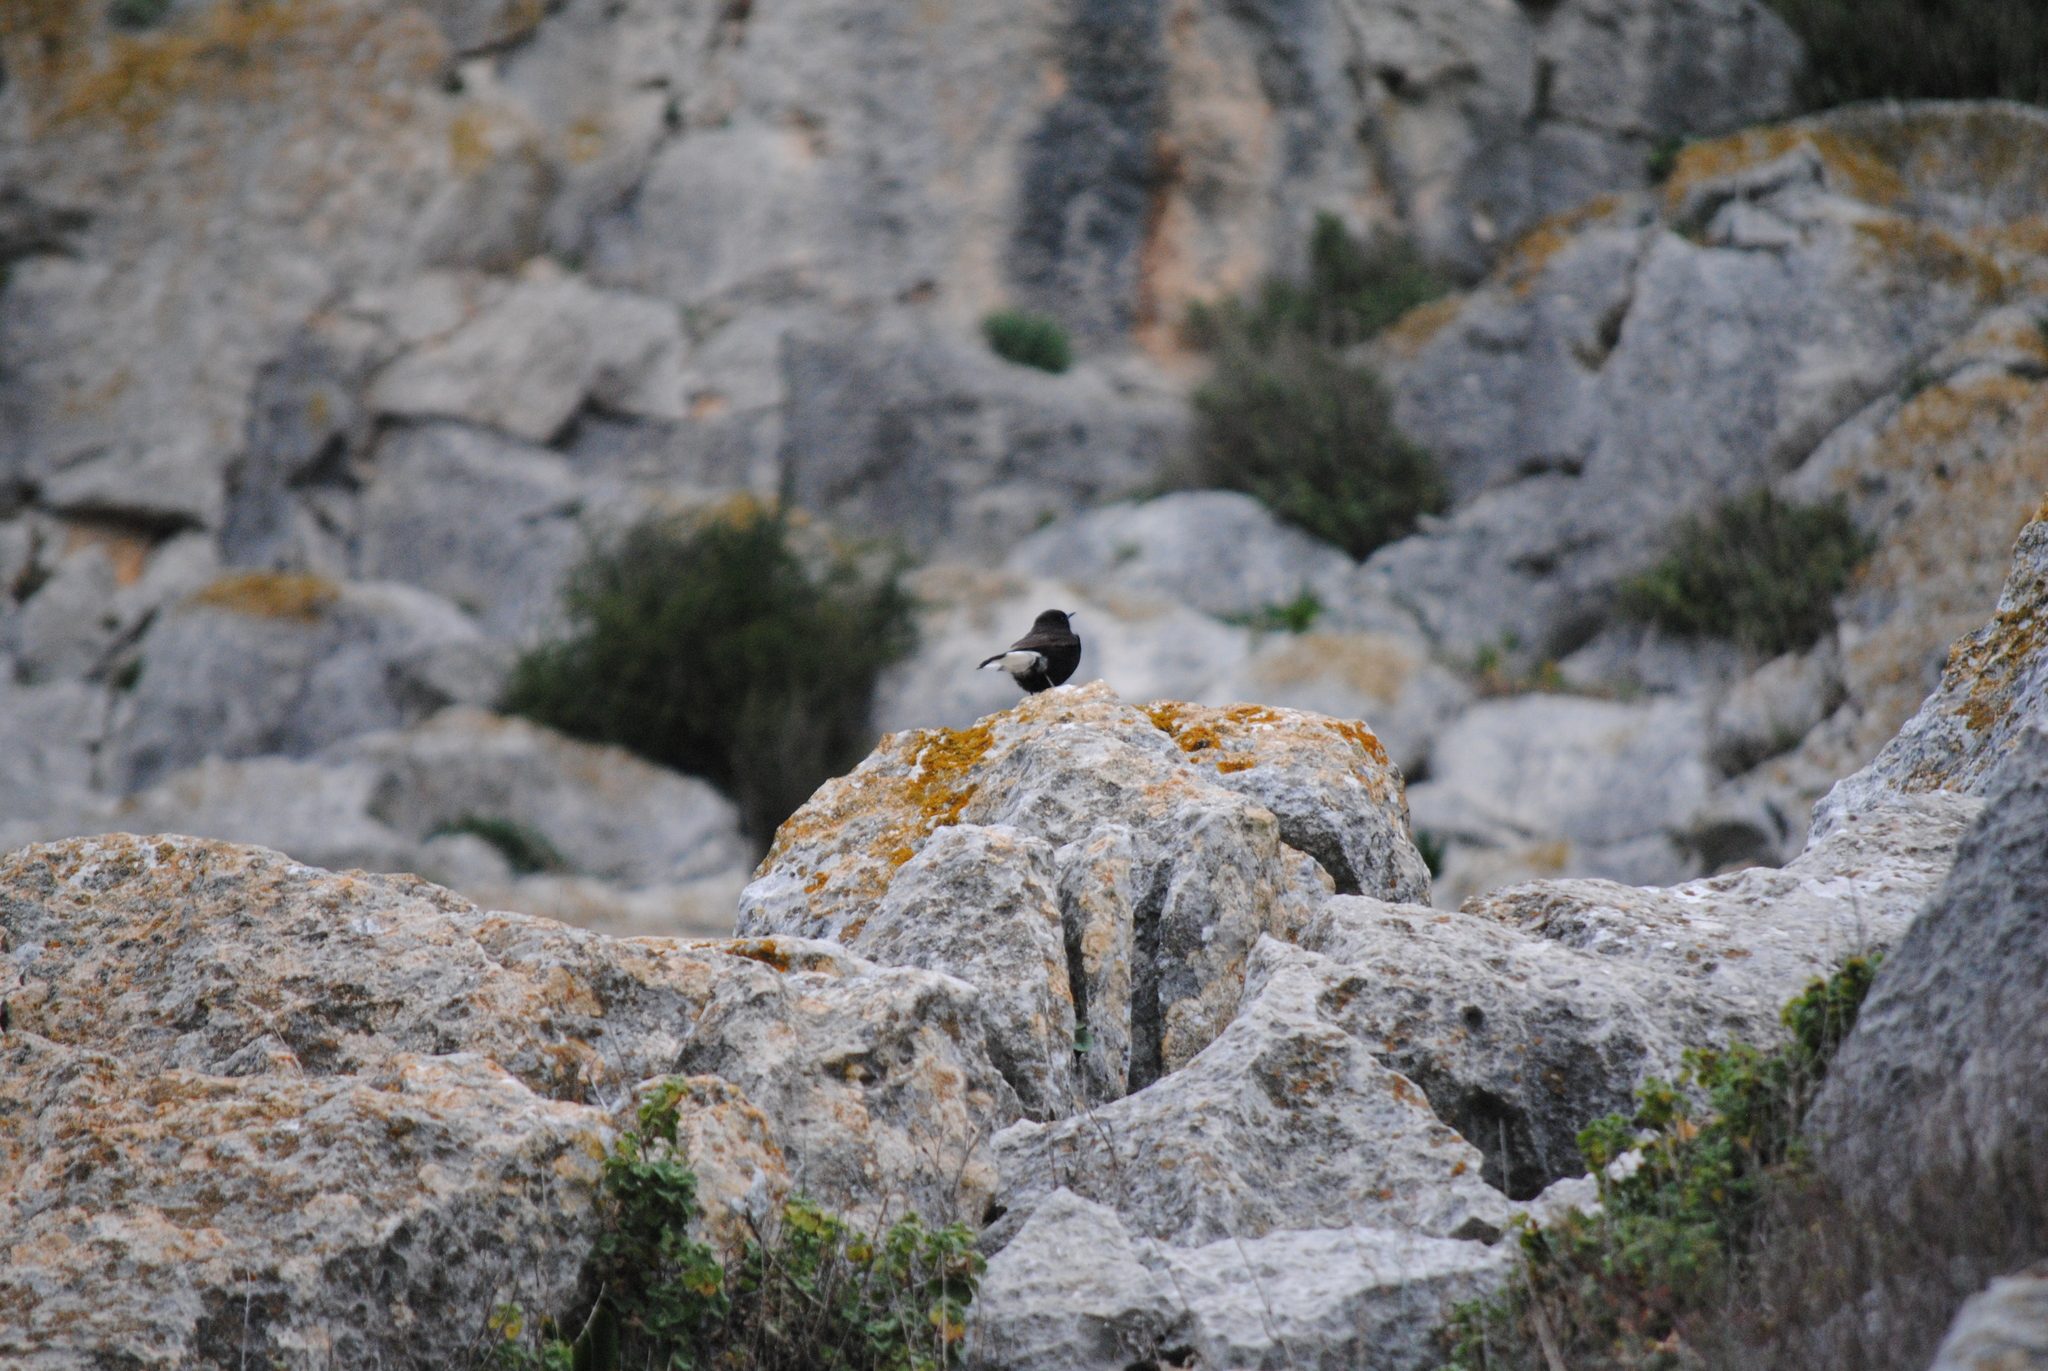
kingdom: Animalia
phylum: Chordata
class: Aves
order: Passeriformes
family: Muscicapidae
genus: Oenanthe
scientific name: Oenanthe leucura
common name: Black wheatear
